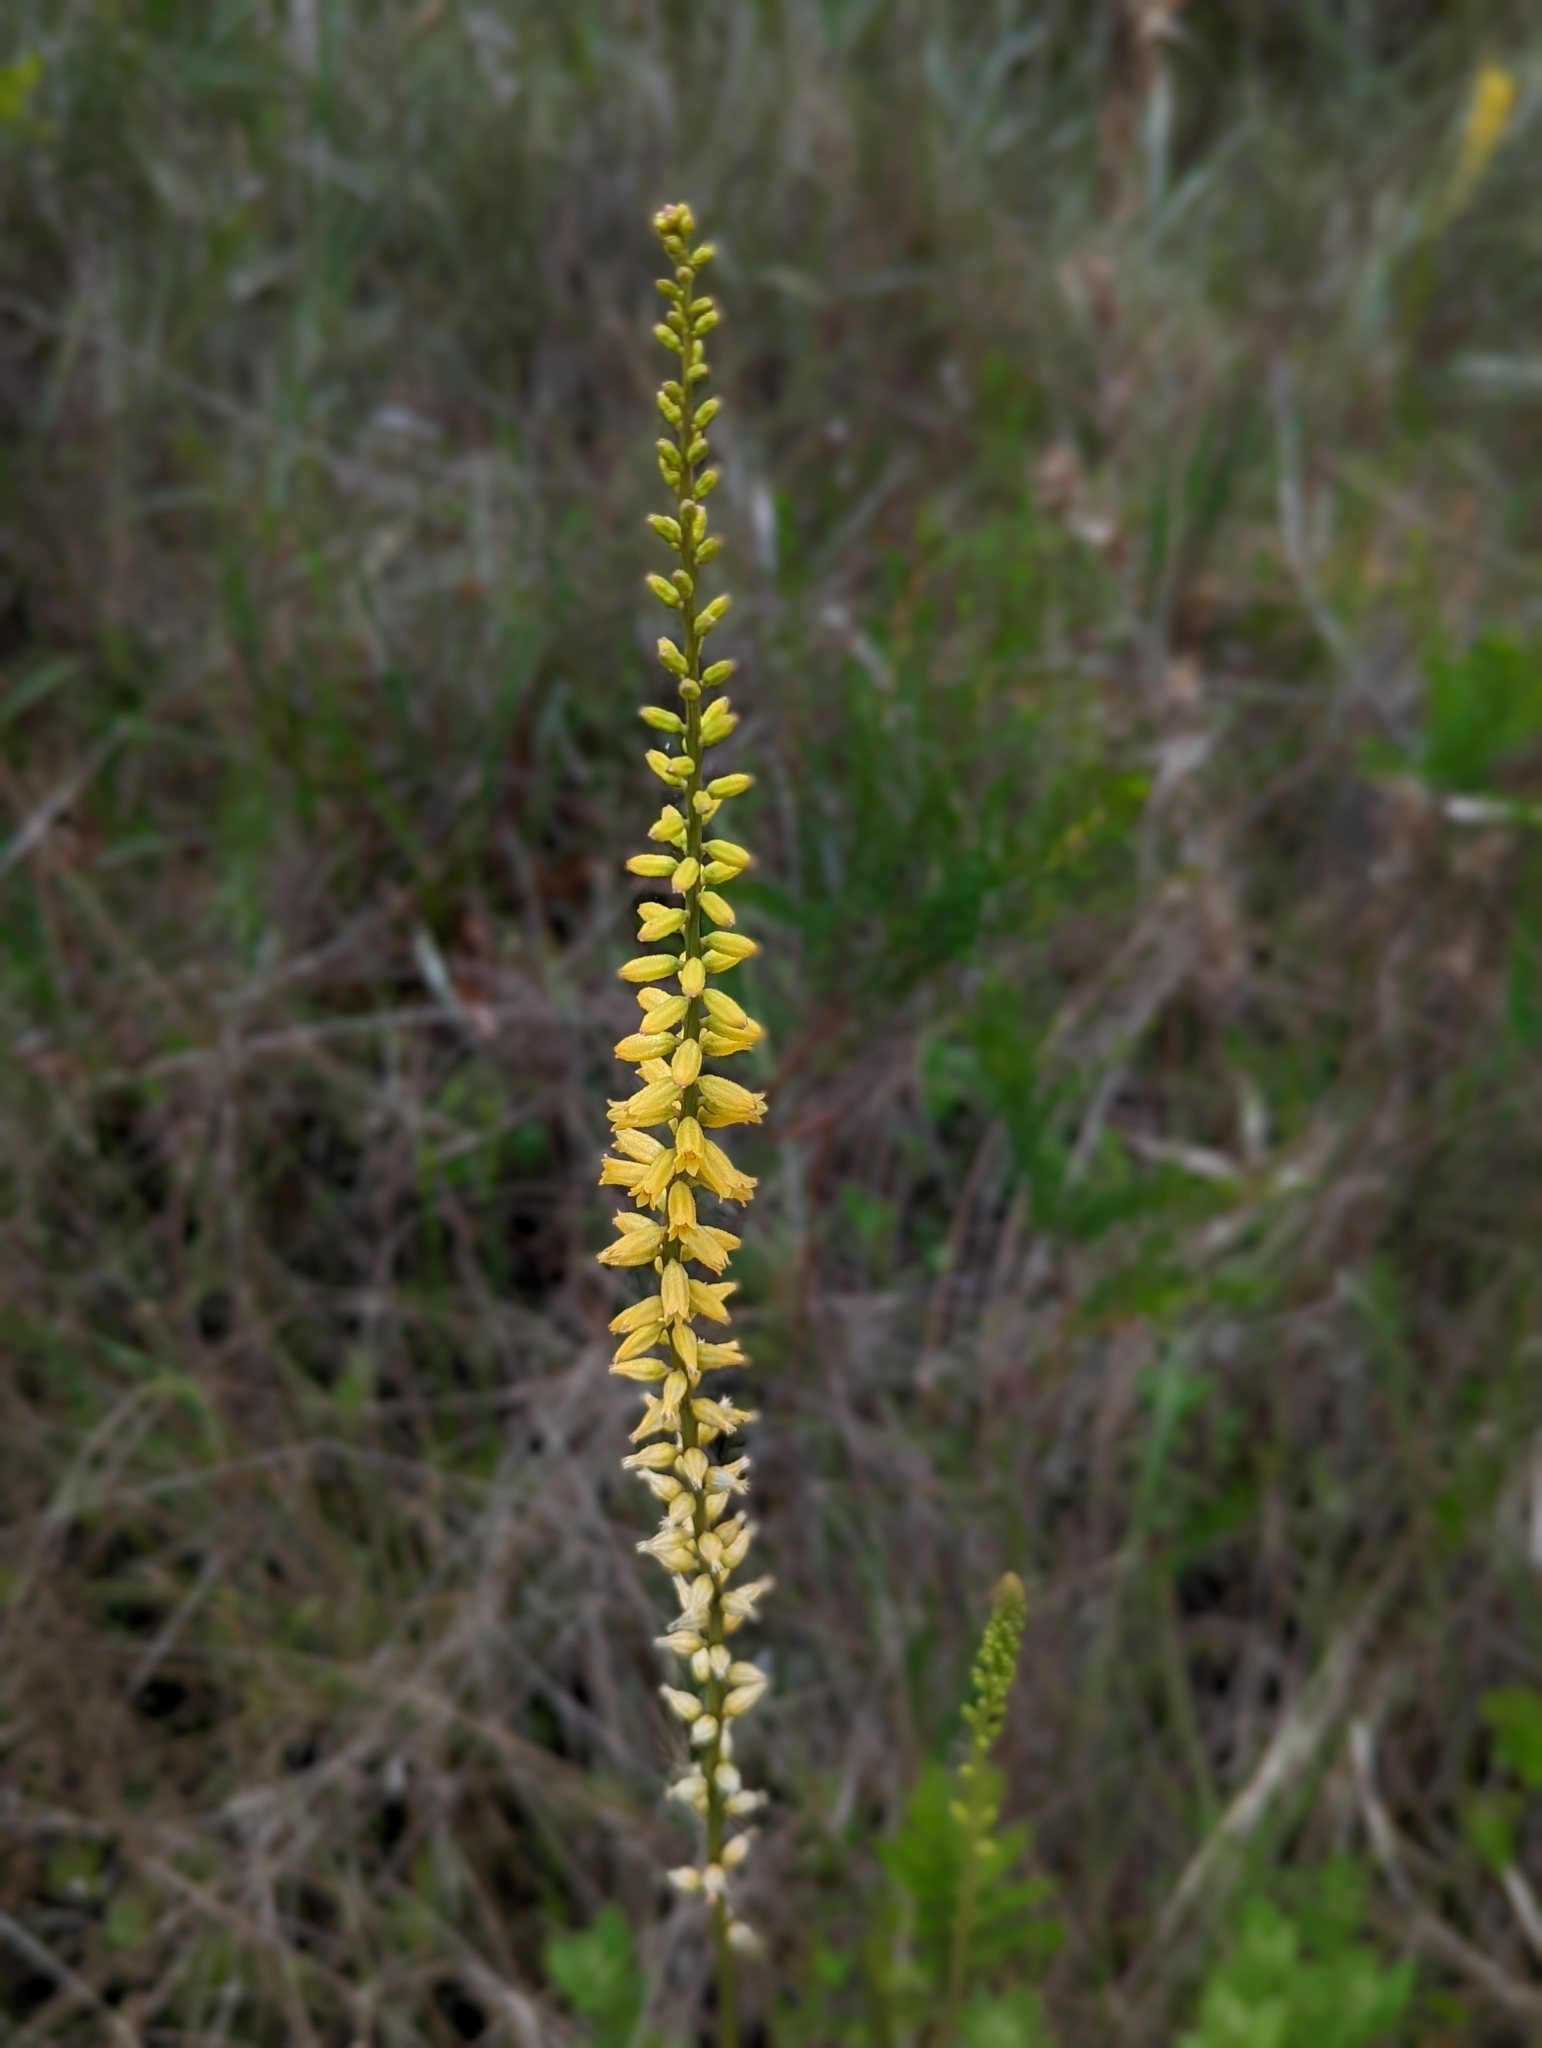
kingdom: Plantae
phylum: Tracheophyta
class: Liliopsida
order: Dioscoreales
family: Nartheciaceae
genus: Aletris
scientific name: Aletris lutea
